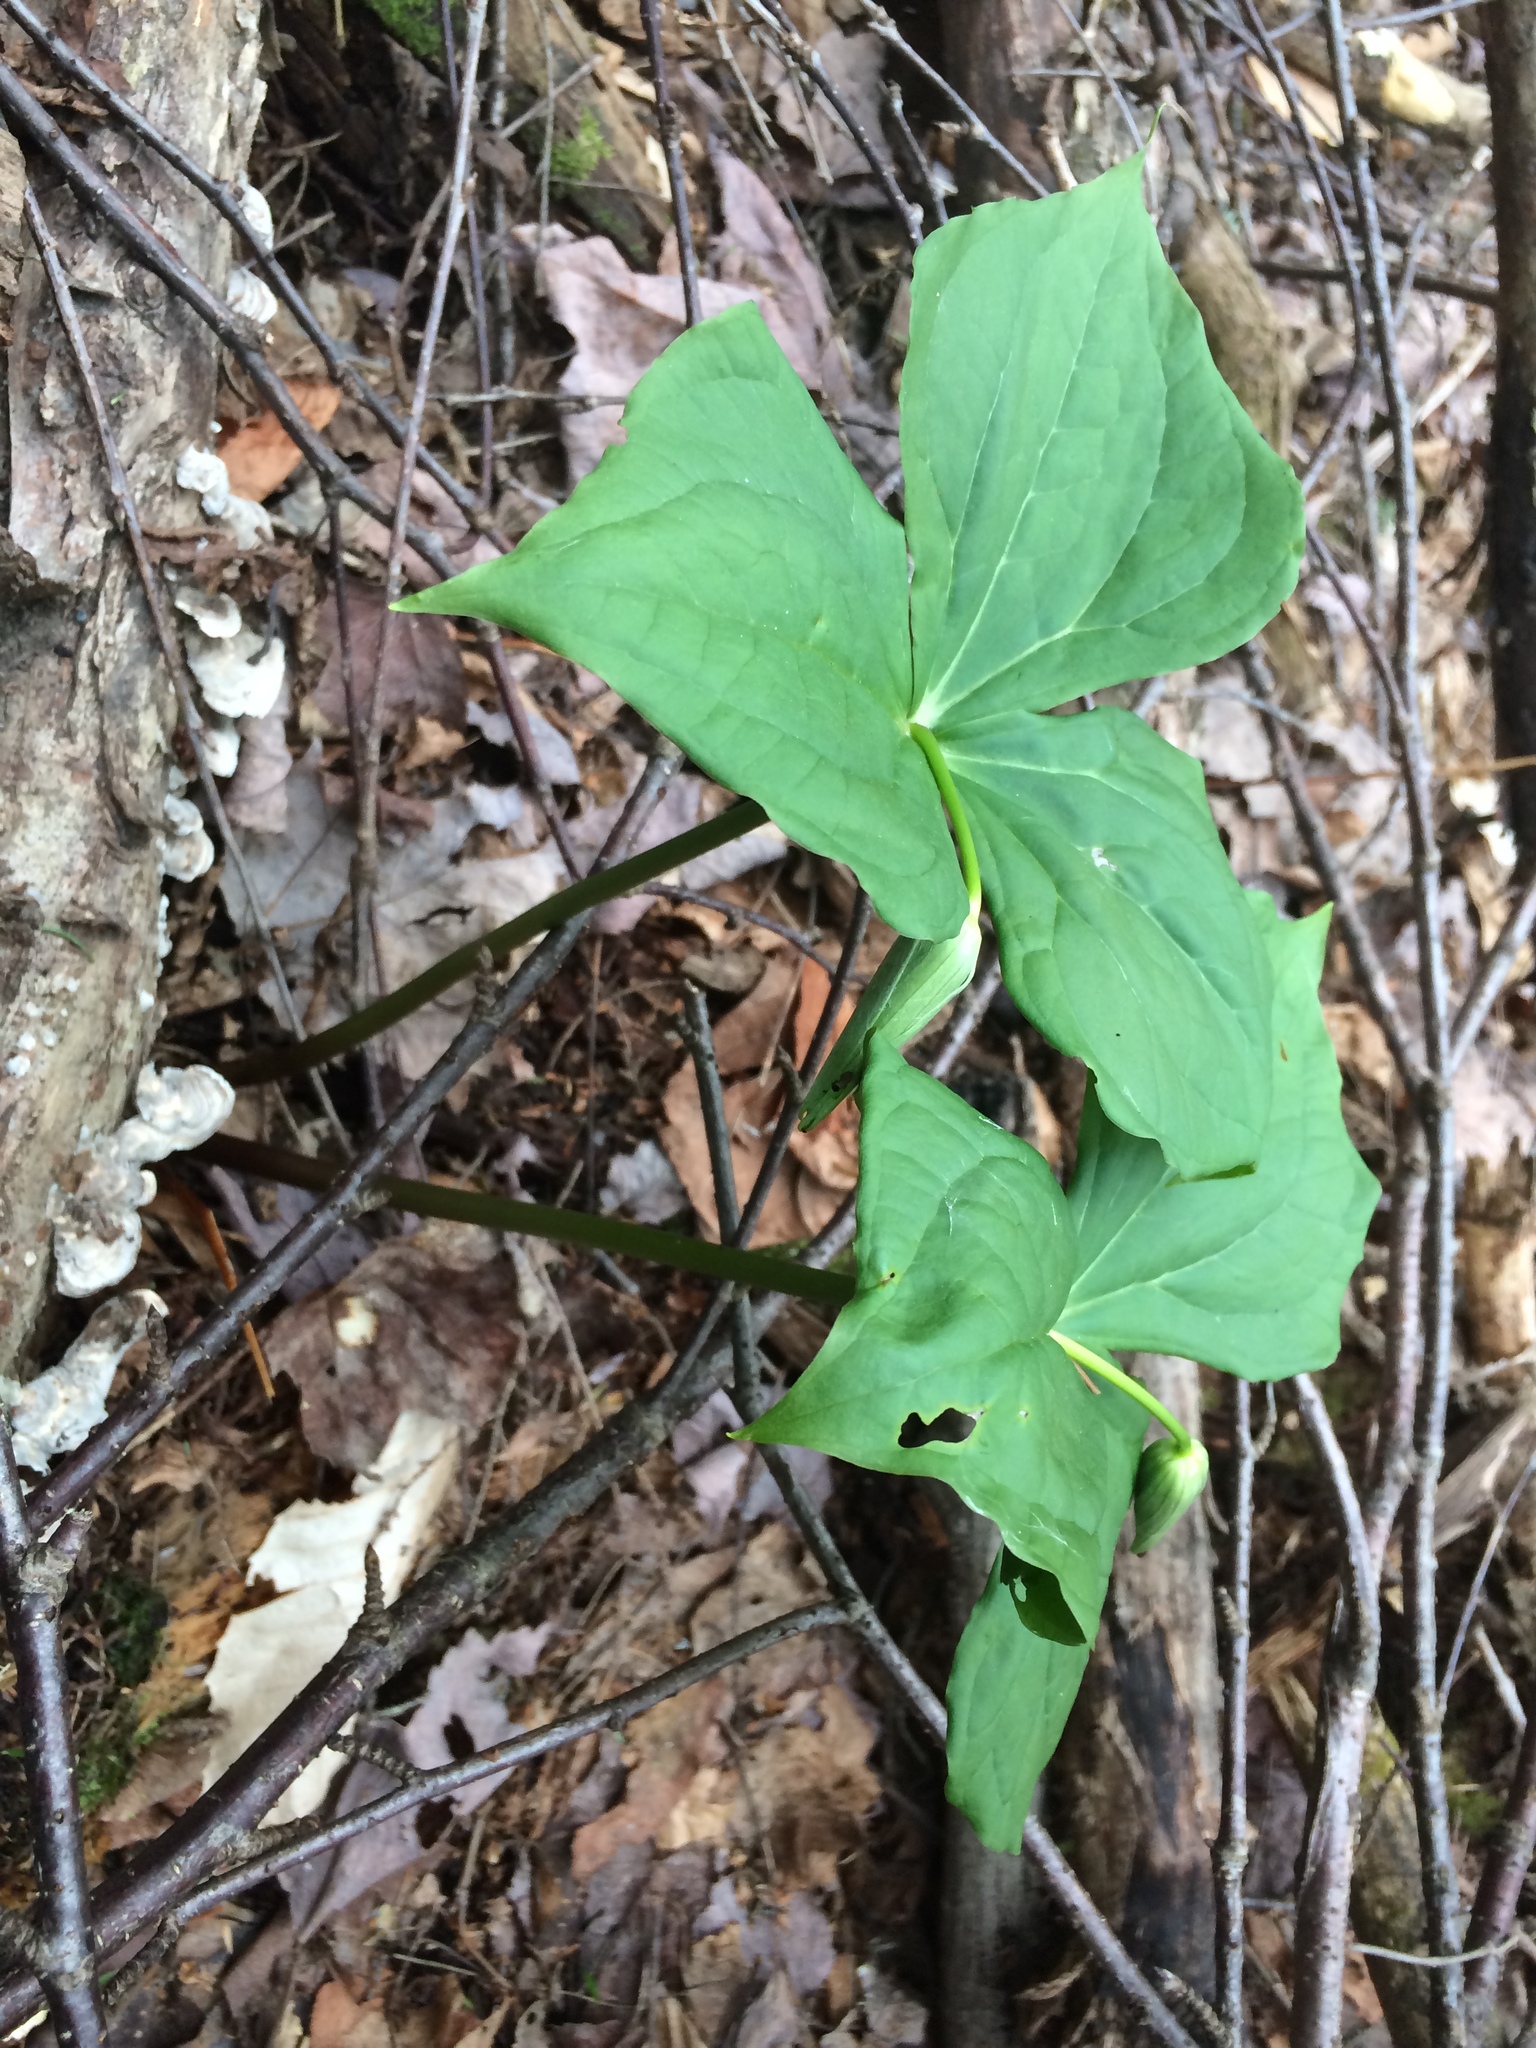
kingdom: Plantae
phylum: Tracheophyta
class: Liliopsida
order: Liliales
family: Melanthiaceae
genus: Trillium
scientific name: Trillium erectum
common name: Purple trillium
